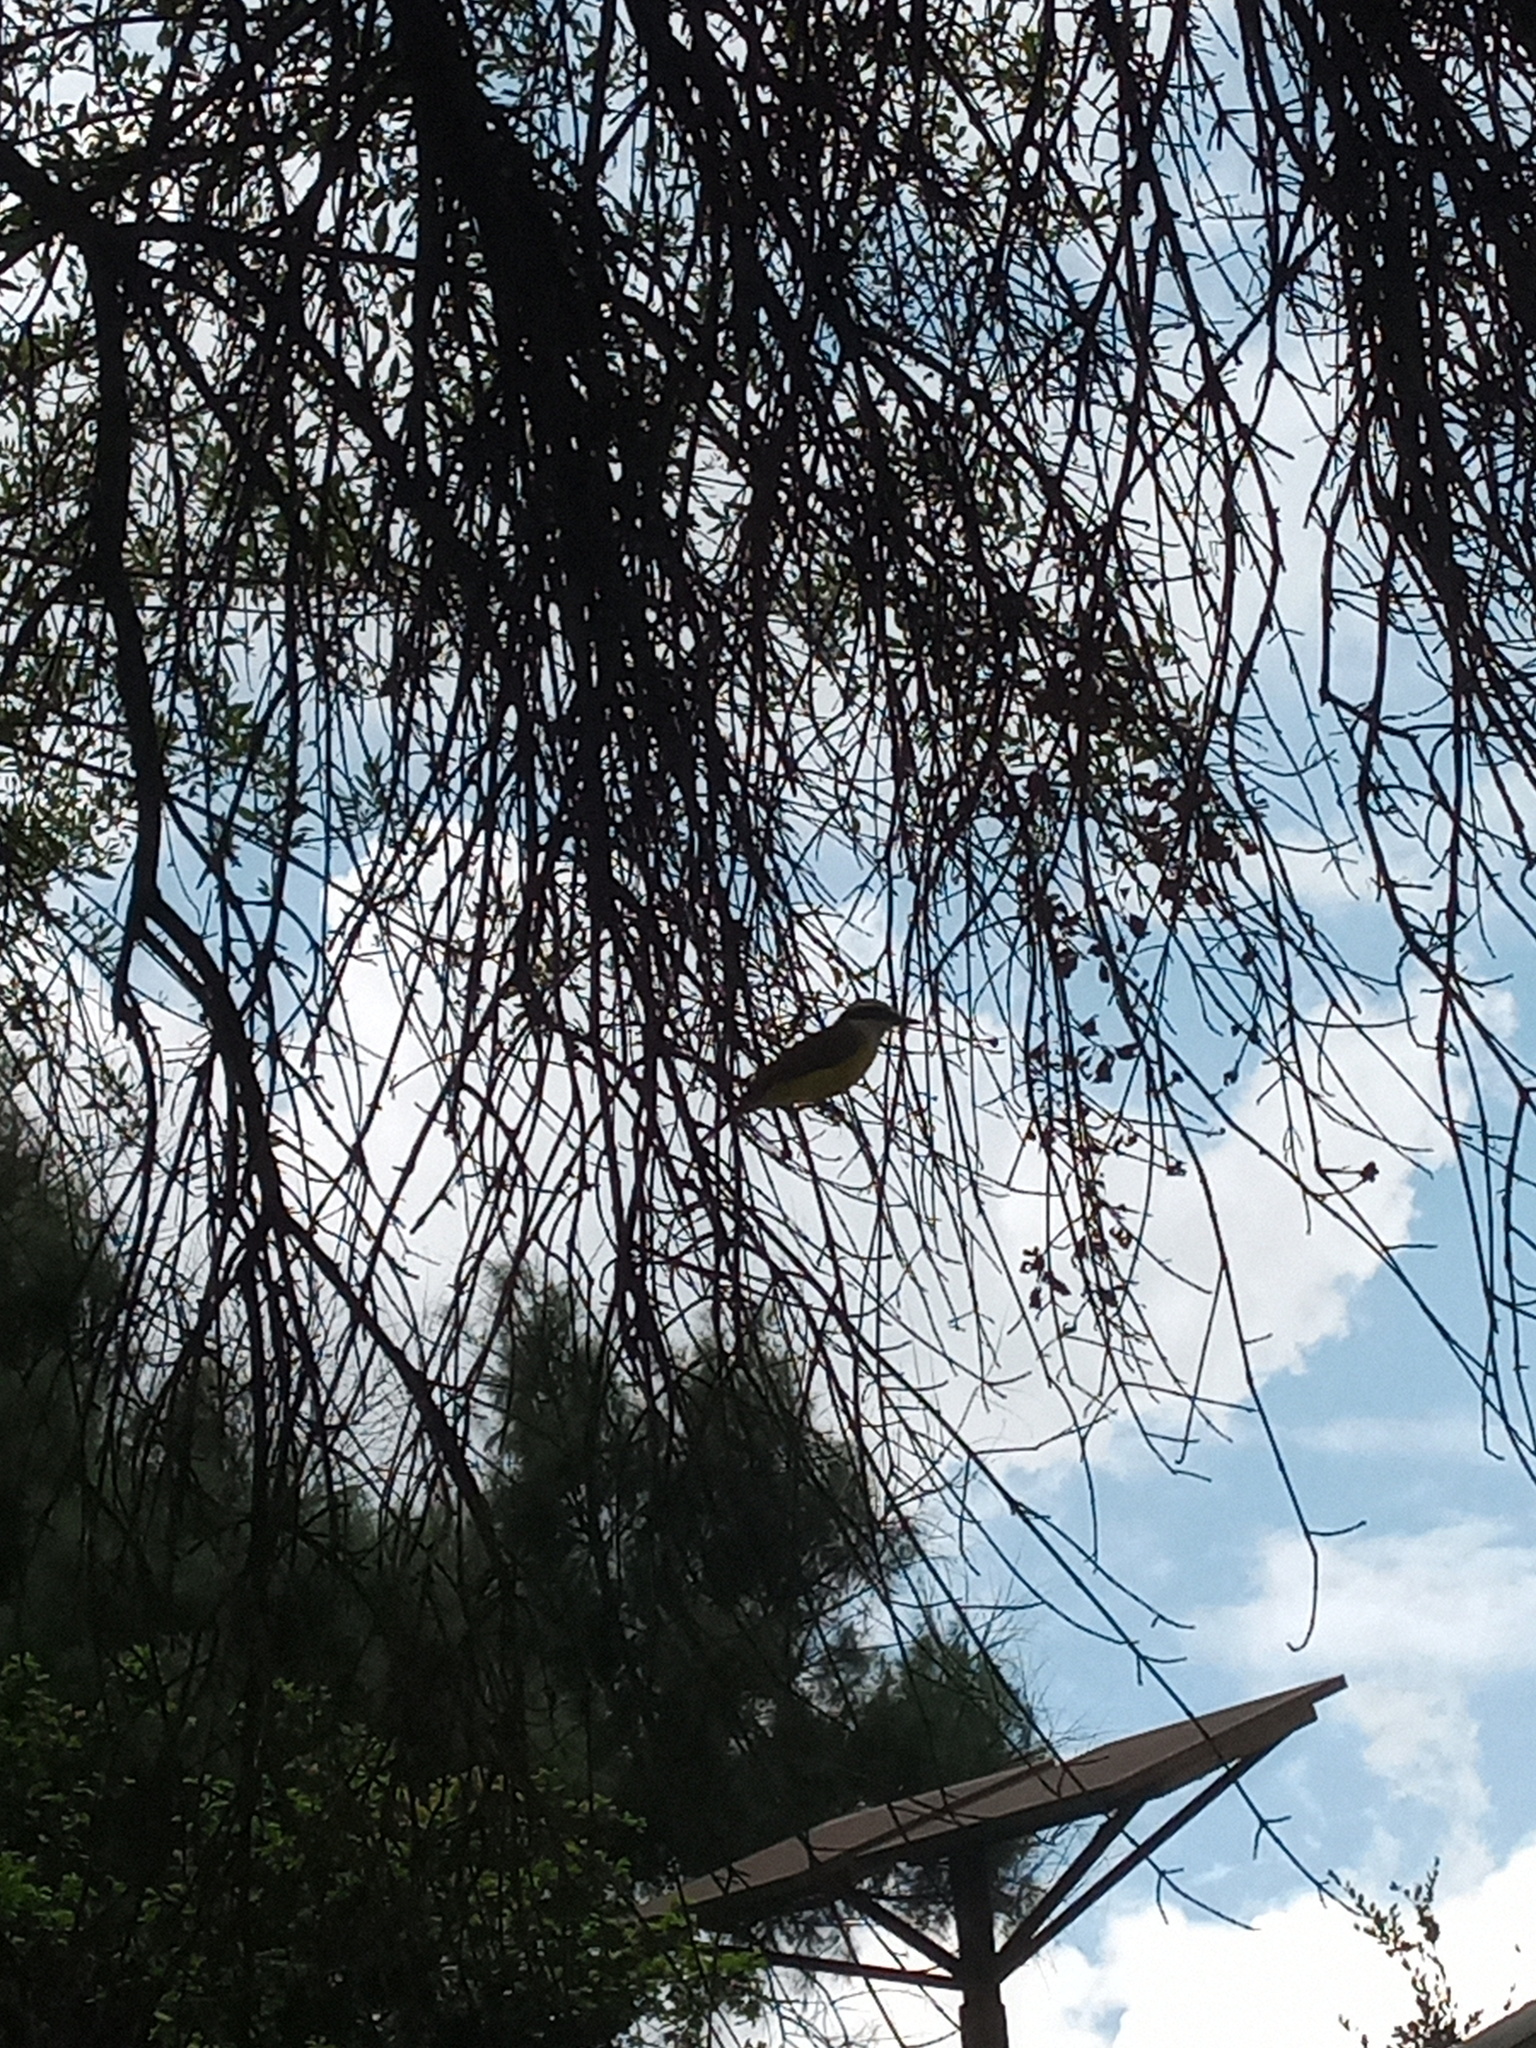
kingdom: Animalia
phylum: Chordata
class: Aves
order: Passeriformes
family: Tyrannidae
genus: Pitangus
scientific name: Pitangus sulphuratus
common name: Great kiskadee
